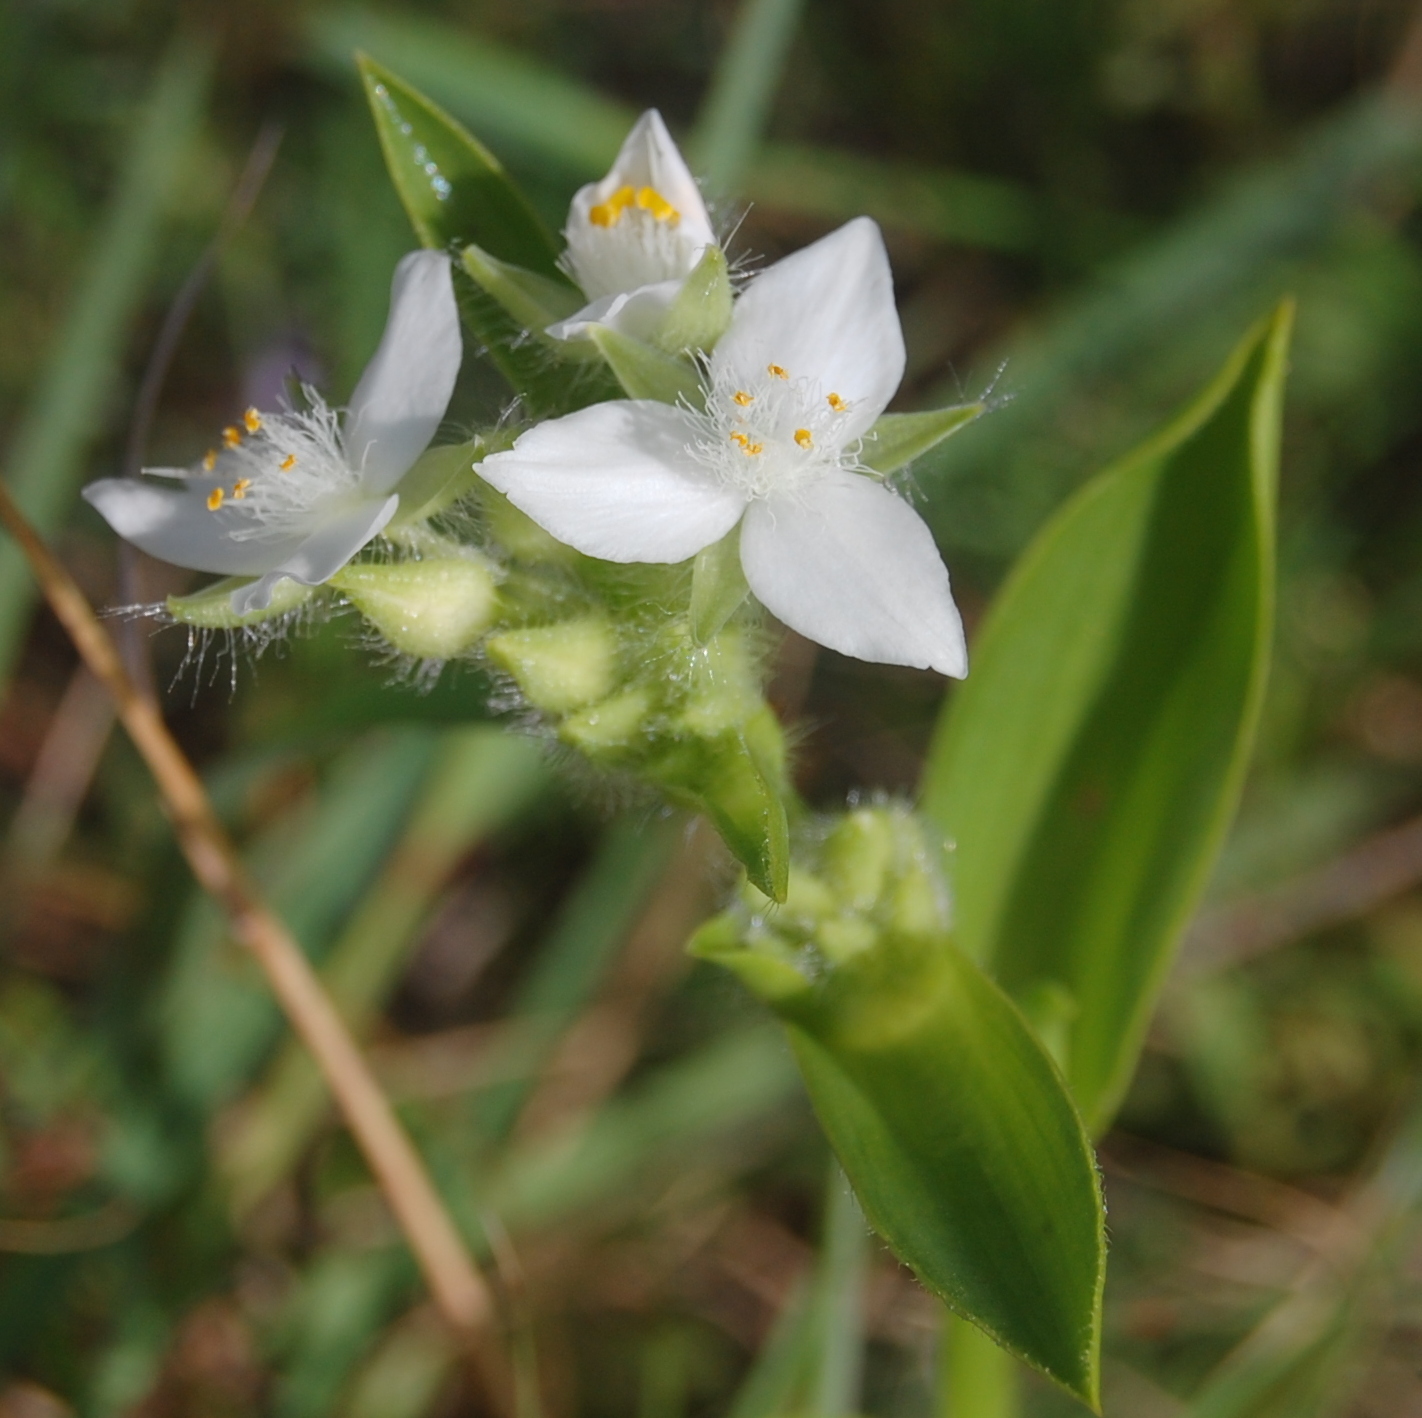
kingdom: Plantae
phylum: Tracheophyta
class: Liliopsida
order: Commelinales
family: Commelinaceae
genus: Tradescantia
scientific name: Tradescantia crassula
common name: Succulent spiderwort
